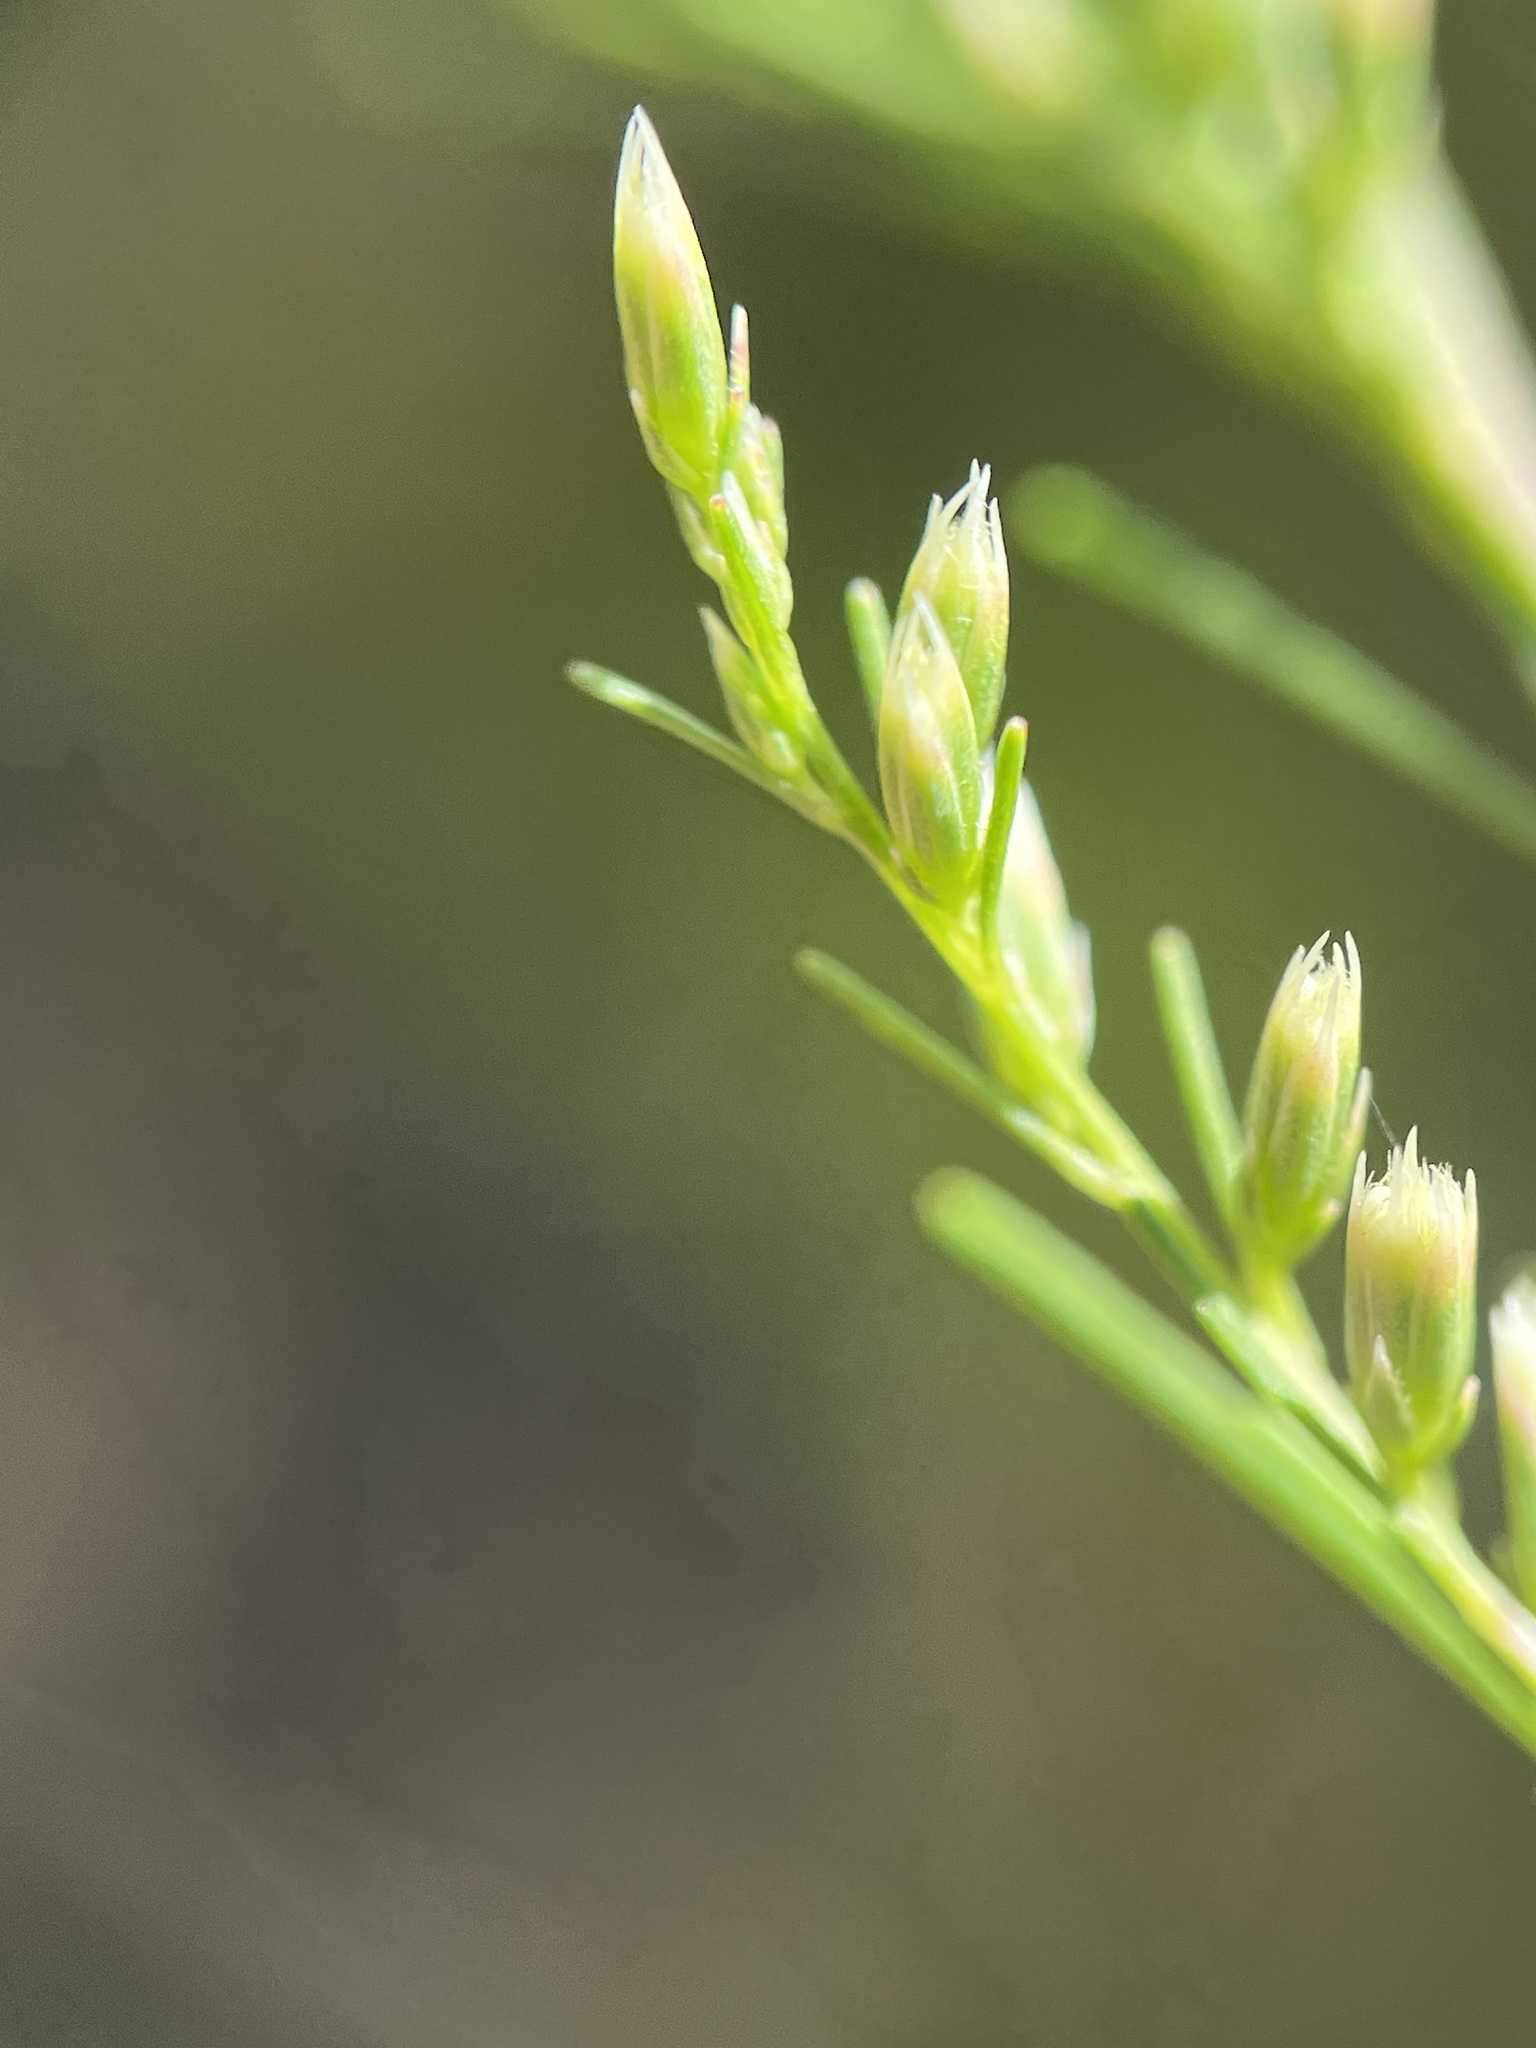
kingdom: Plantae
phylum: Tracheophyta
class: Magnoliopsida
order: Asterales
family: Asteraceae
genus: Eupatorium
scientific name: Eupatorium leptophyllum
